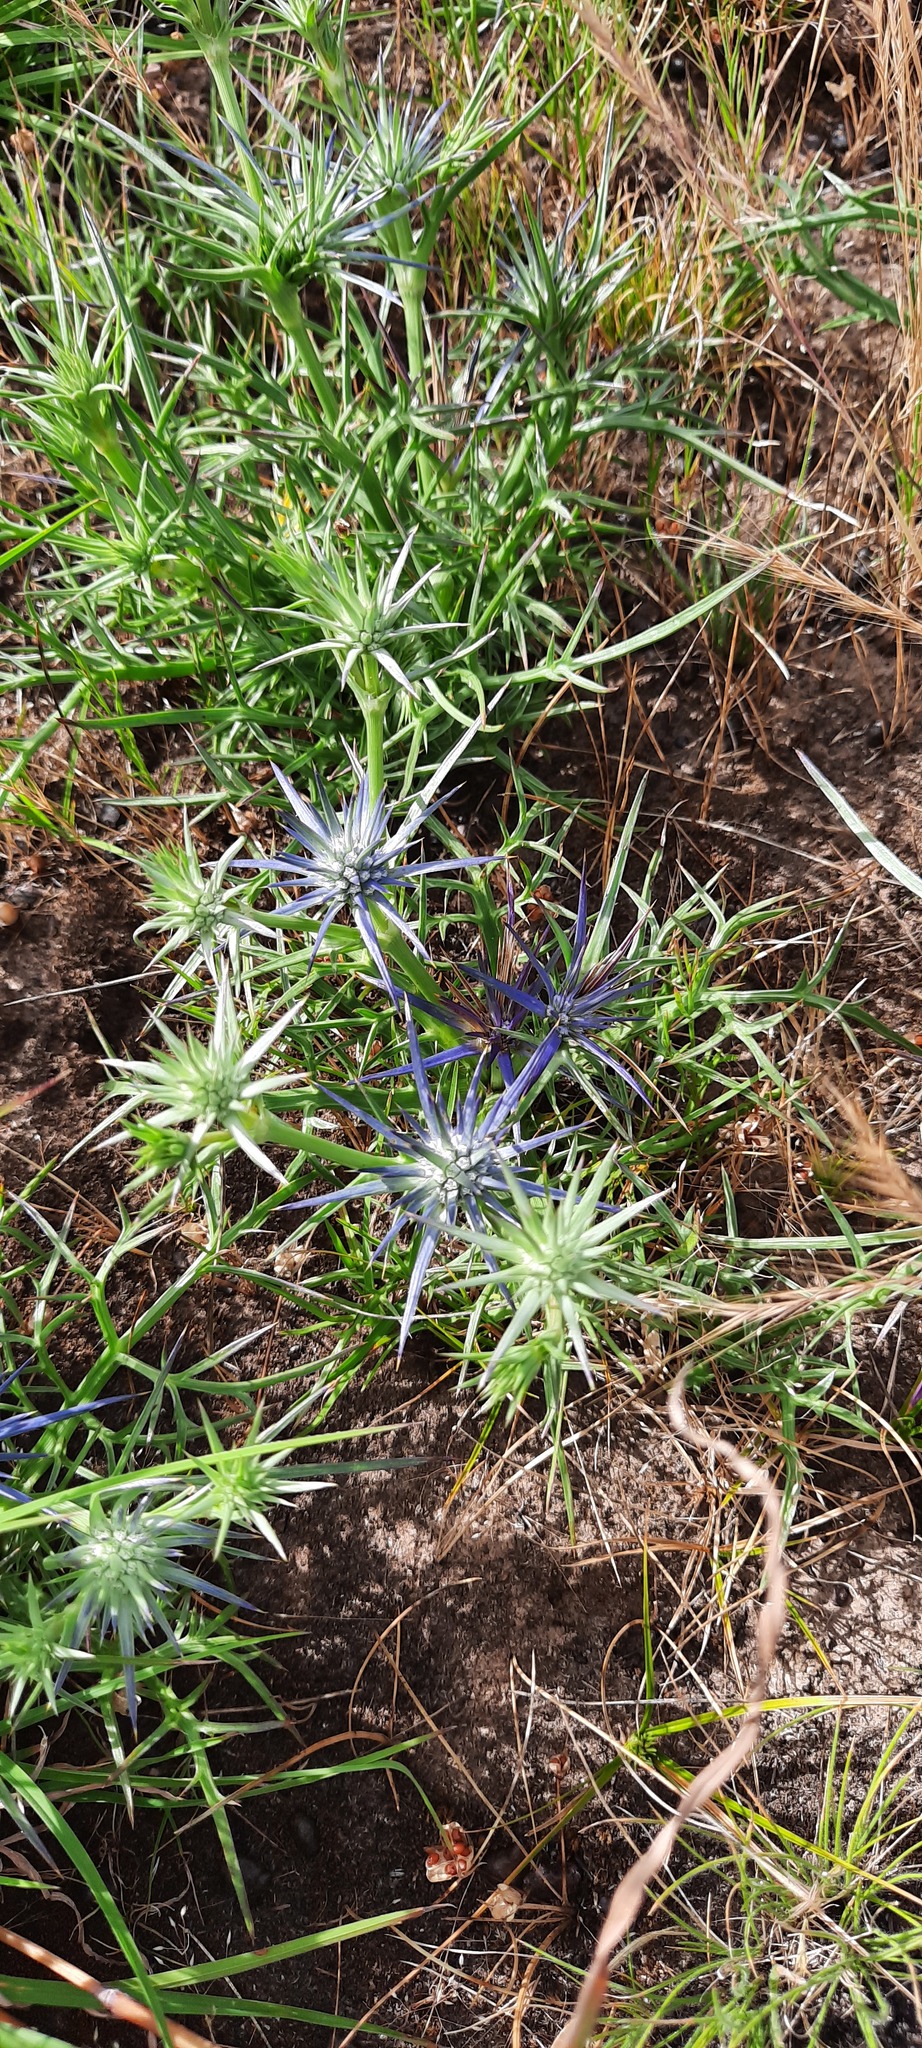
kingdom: Plantae
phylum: Tracheophyta
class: Magnoliopsida
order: Apiales
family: Apiaceae
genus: Eryngium
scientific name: Eryngium ovinum
